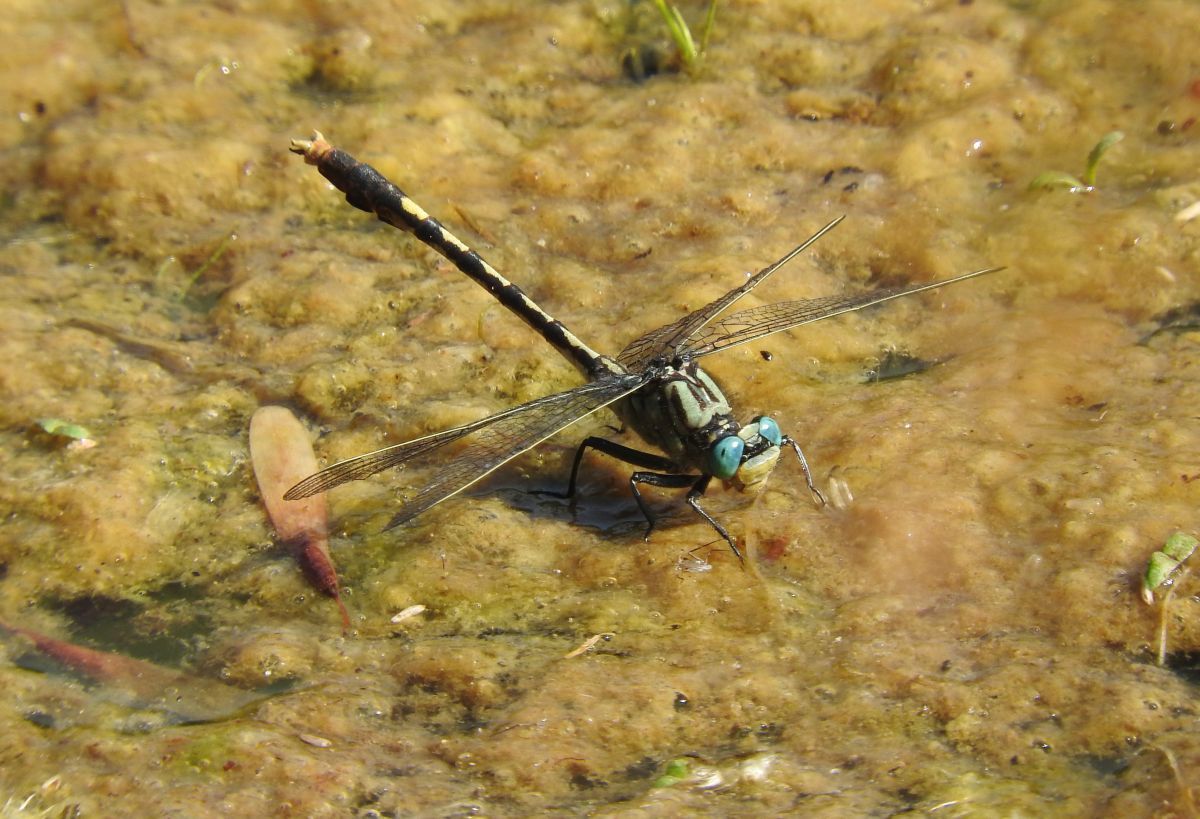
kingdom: Animalia
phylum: Arthropoda
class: Insecta
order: Odonata
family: Gomphidae
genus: Arigomphus
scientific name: Arigomphus villosipes
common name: Unicorn clubtail
